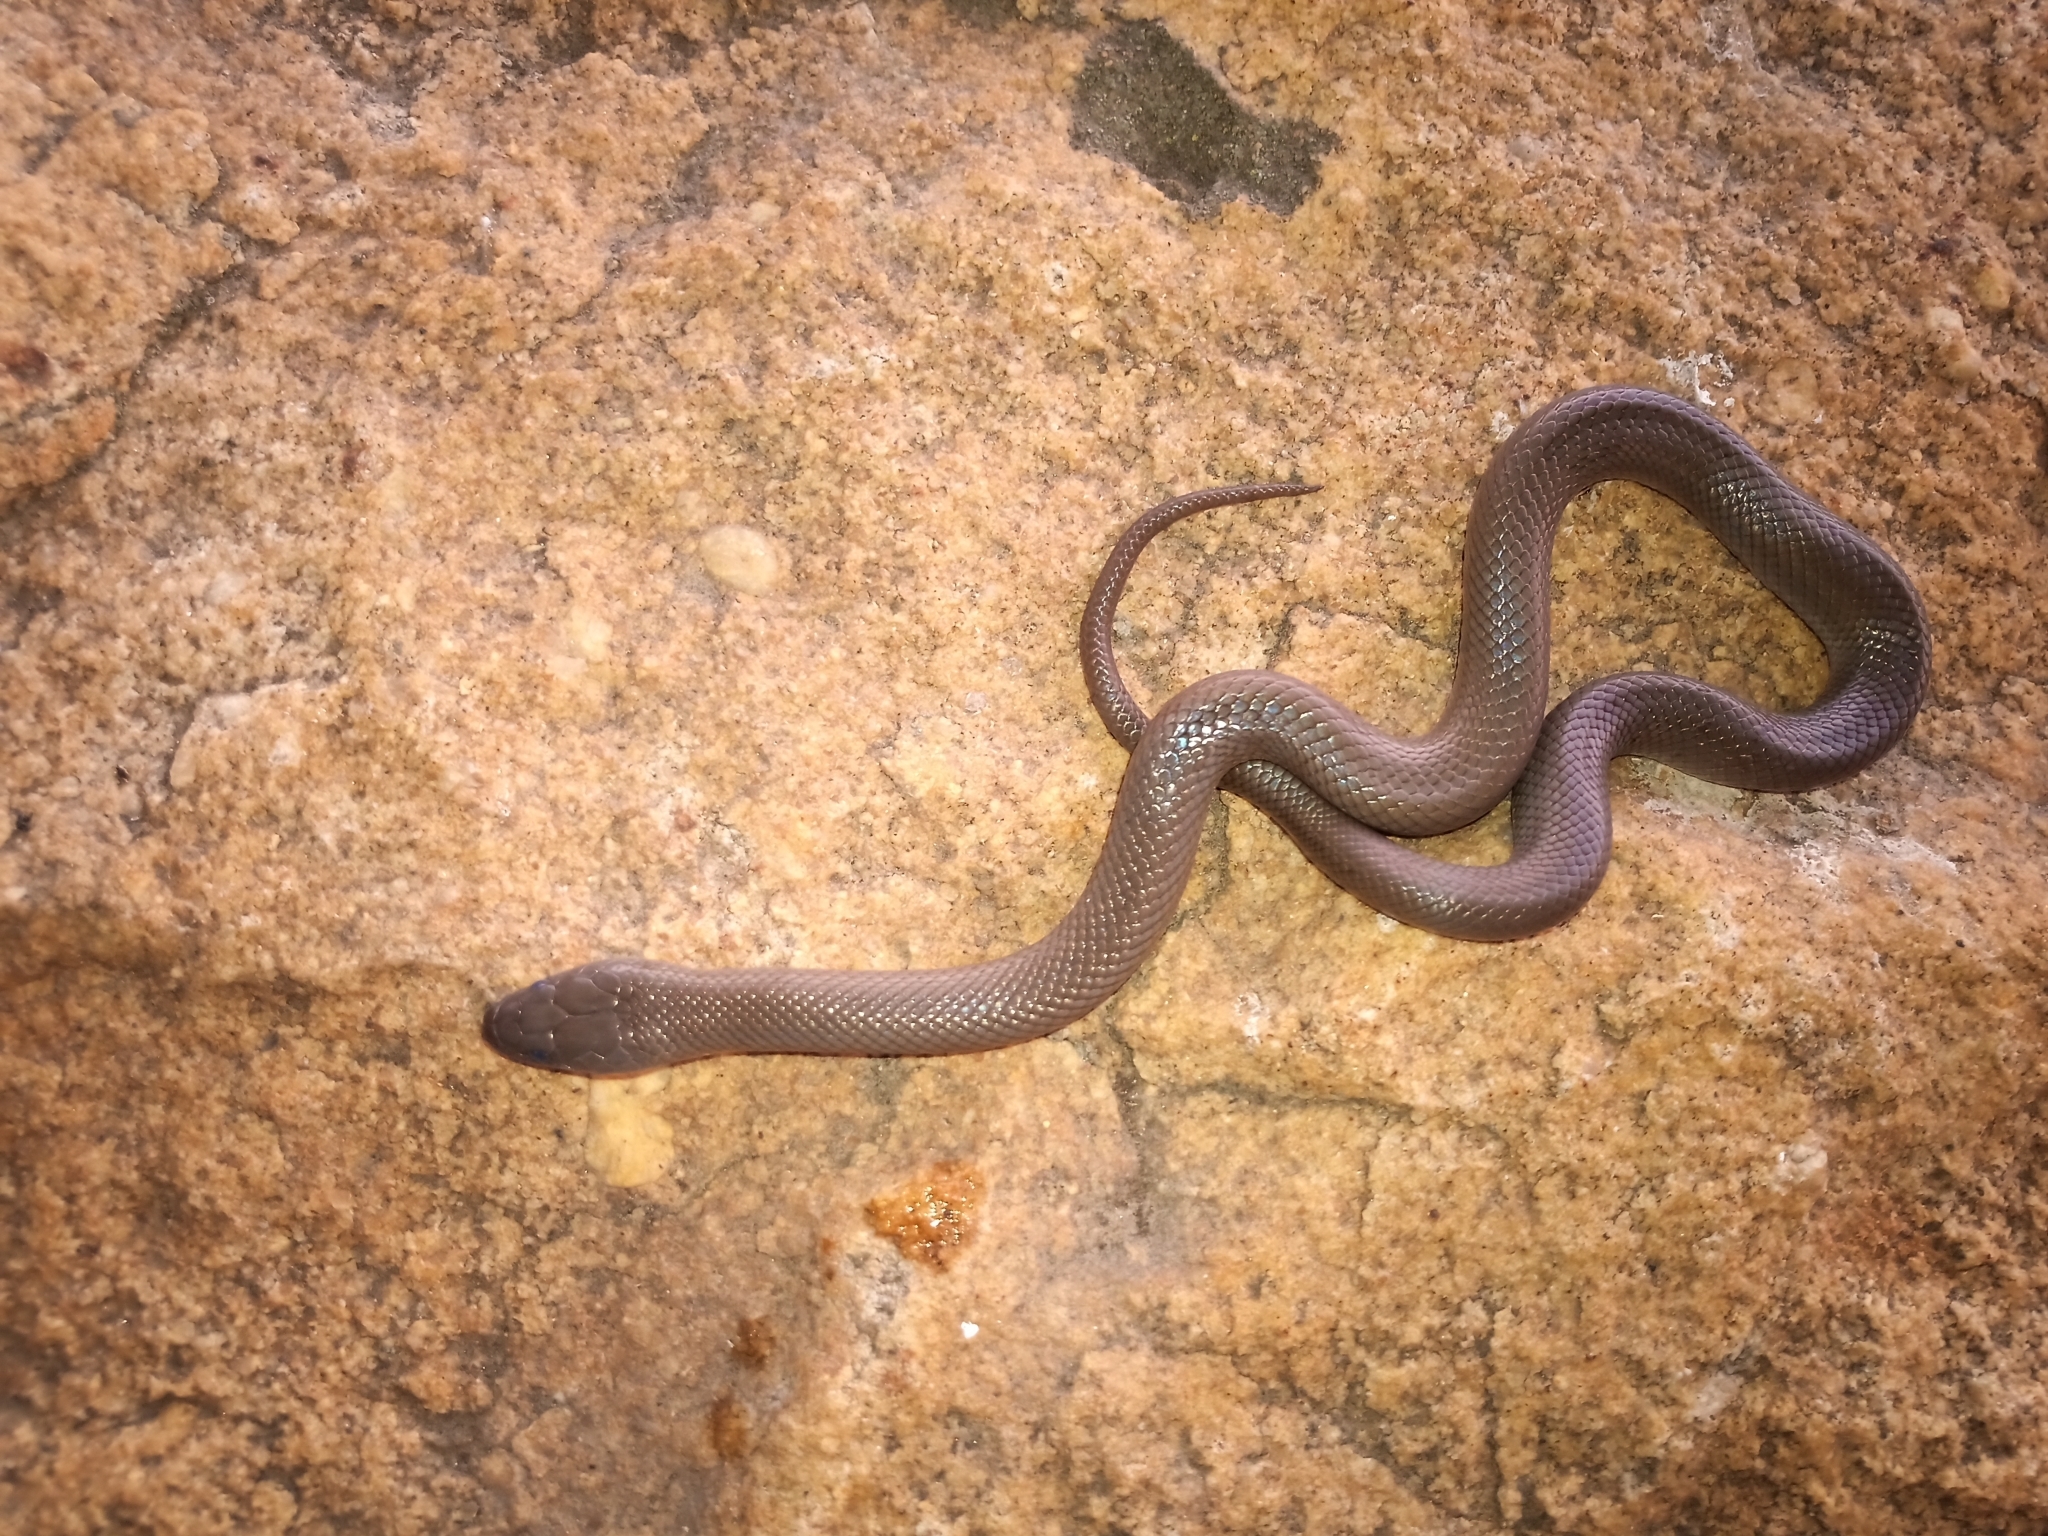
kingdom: Animalia
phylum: Chordata
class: Squamata
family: Lamprophiidae
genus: Lycodonomorphus
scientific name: Lycodonomorphus inornatus
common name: Black house snake
